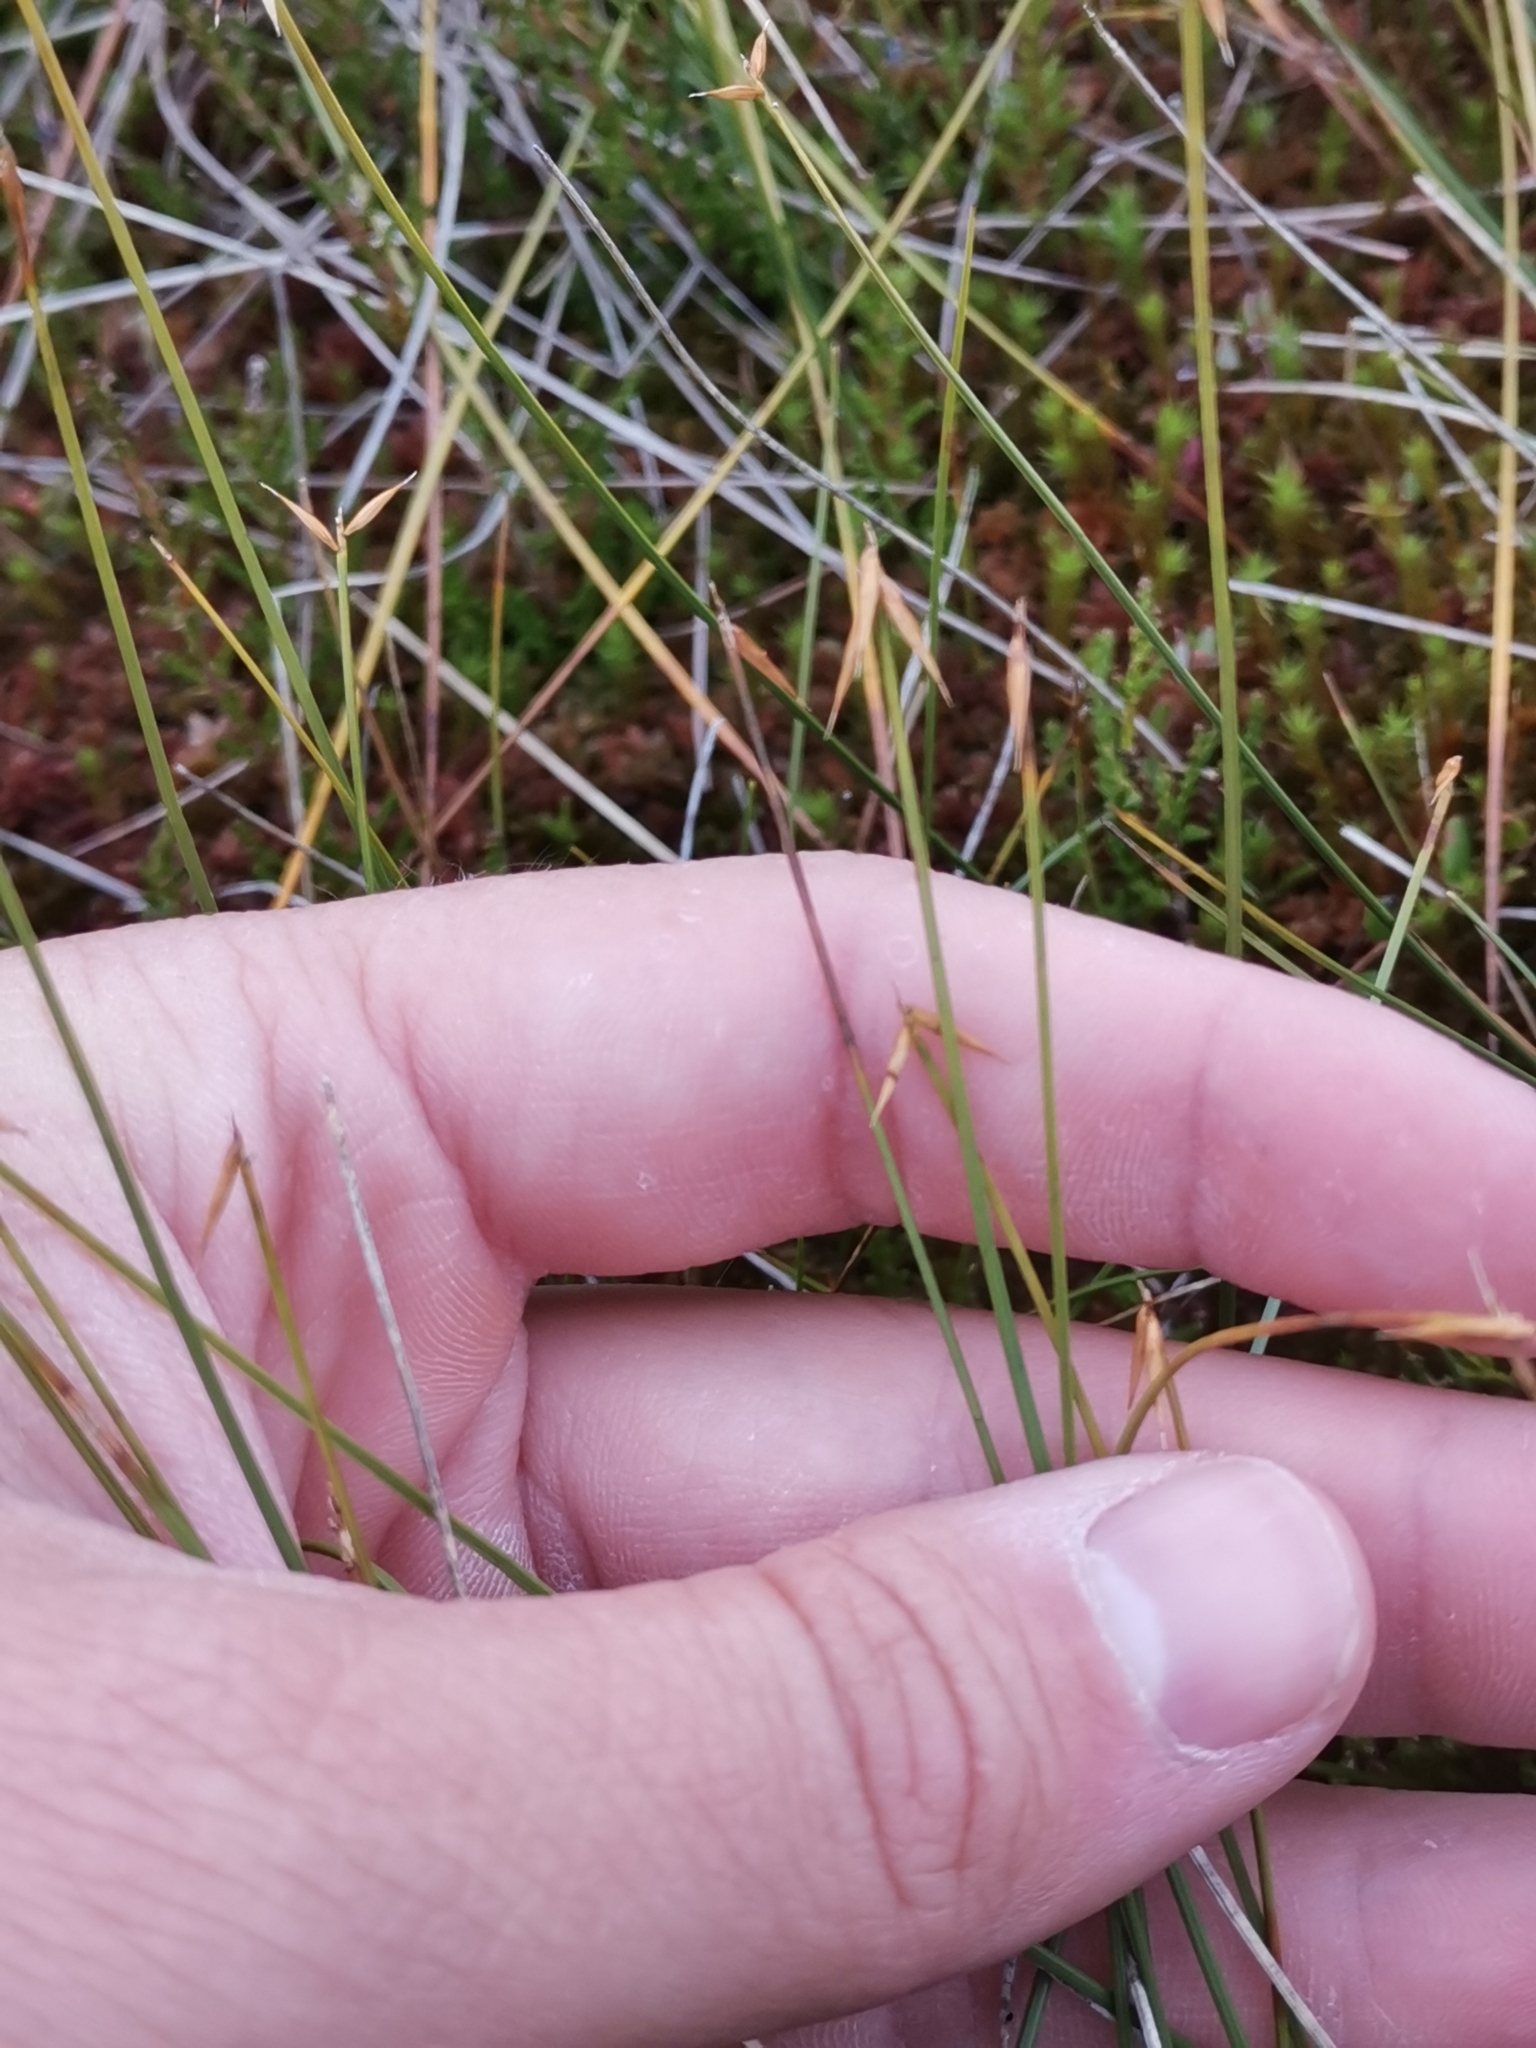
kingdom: Plantae
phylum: Tracheophyta
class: Liliopsida
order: Poales
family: Cyperaceae
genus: Carex
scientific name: Carex pauciflora
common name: Few-flowered sedge
